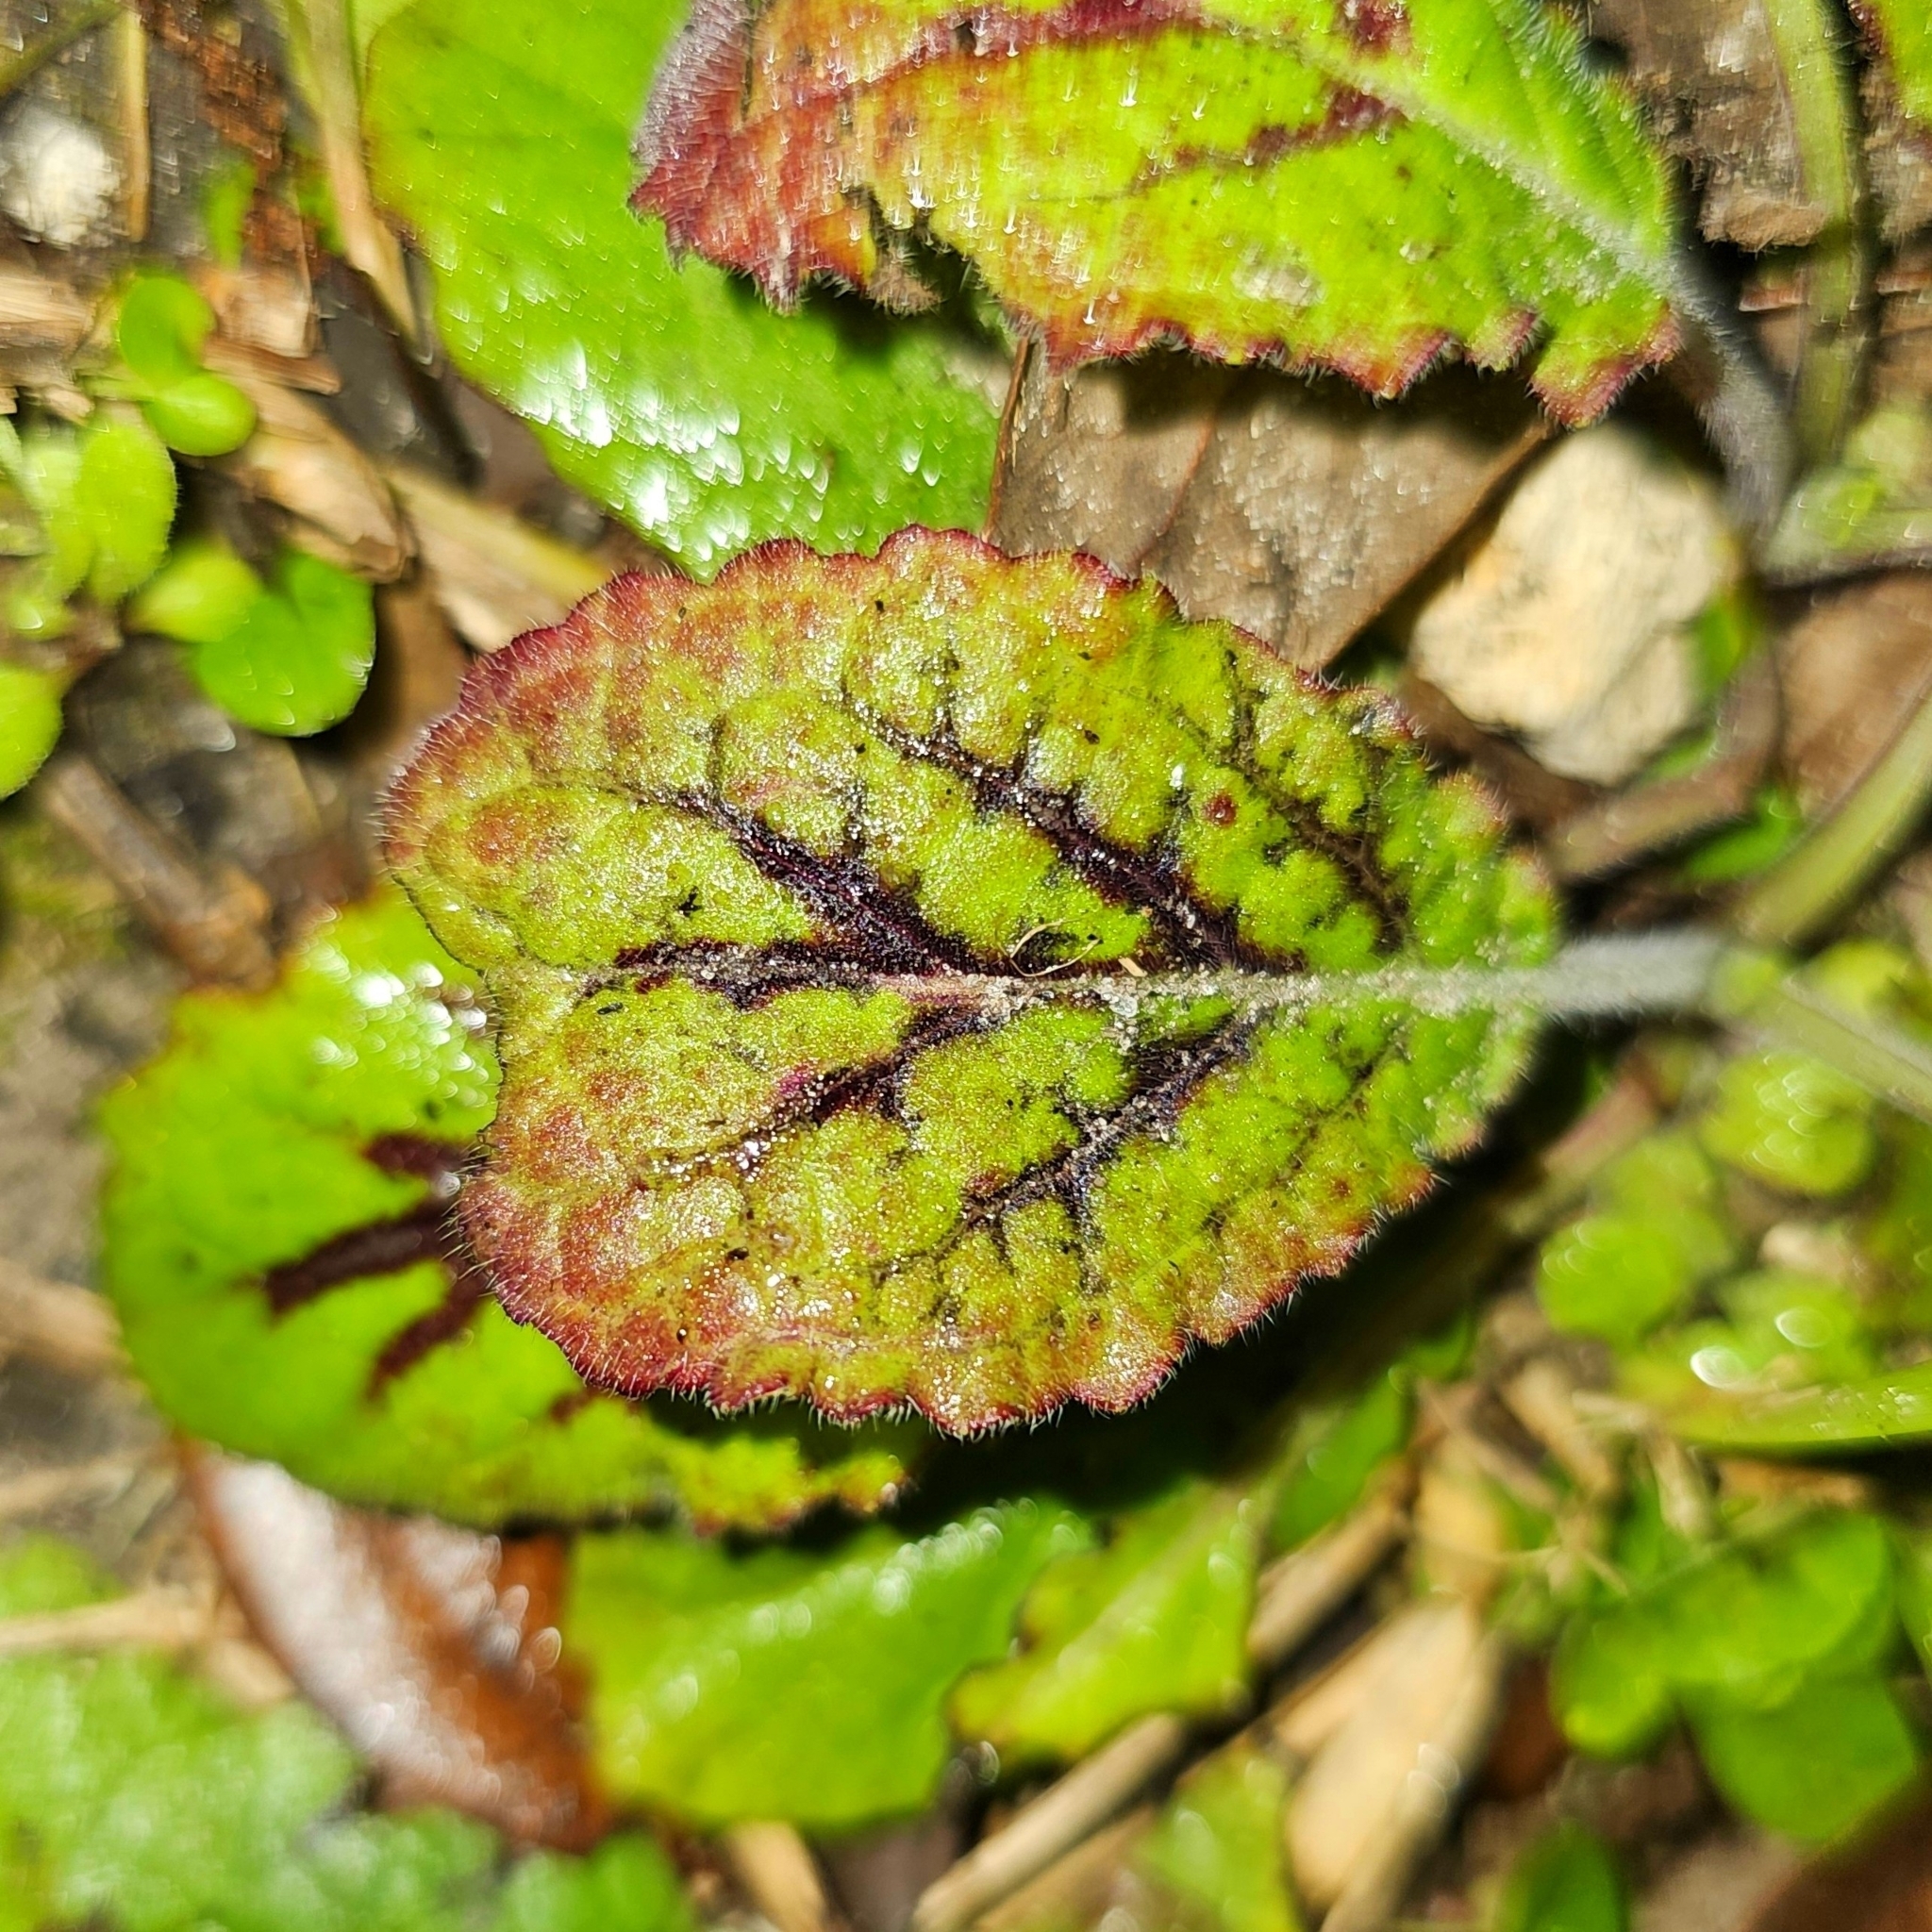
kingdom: Plantae
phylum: Tracheophyta
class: Magnoliopsida
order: Lamiales
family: Lamiaceae
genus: Salvia
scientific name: Salvia lyrata
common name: Cancerweed
